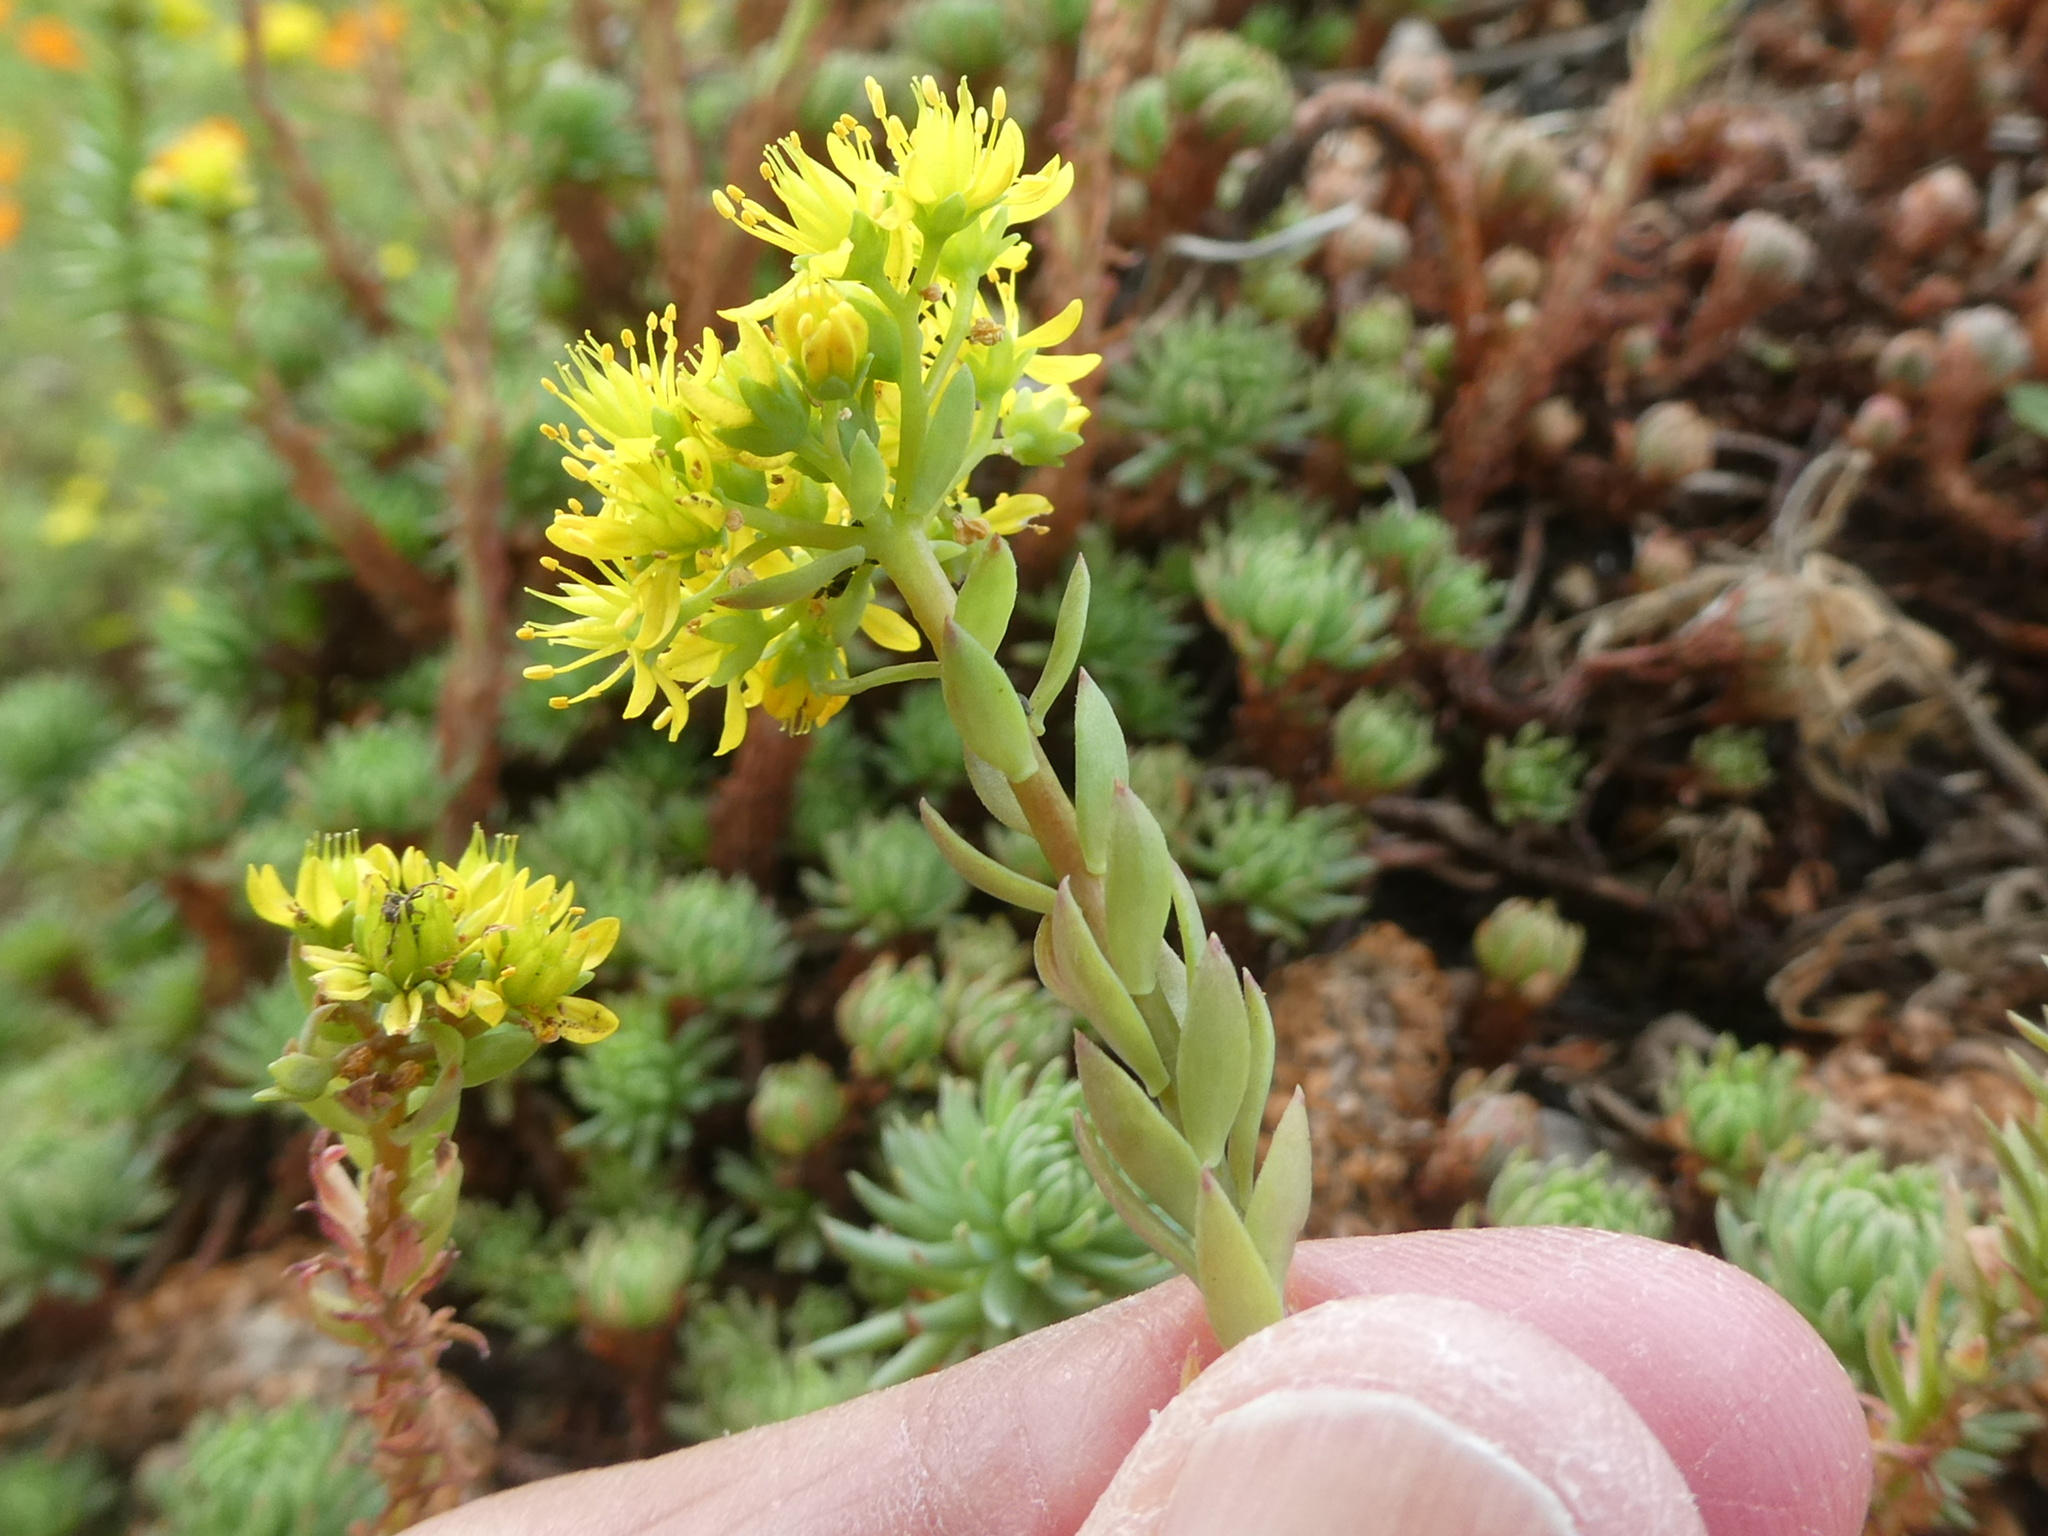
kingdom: Plantae
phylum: Tracheophyta
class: Magnoliopsida
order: Saxifragales
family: Crassulaceae
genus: Petrosedum
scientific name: Petrosedum forsterianum
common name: Forster's stonecrop
